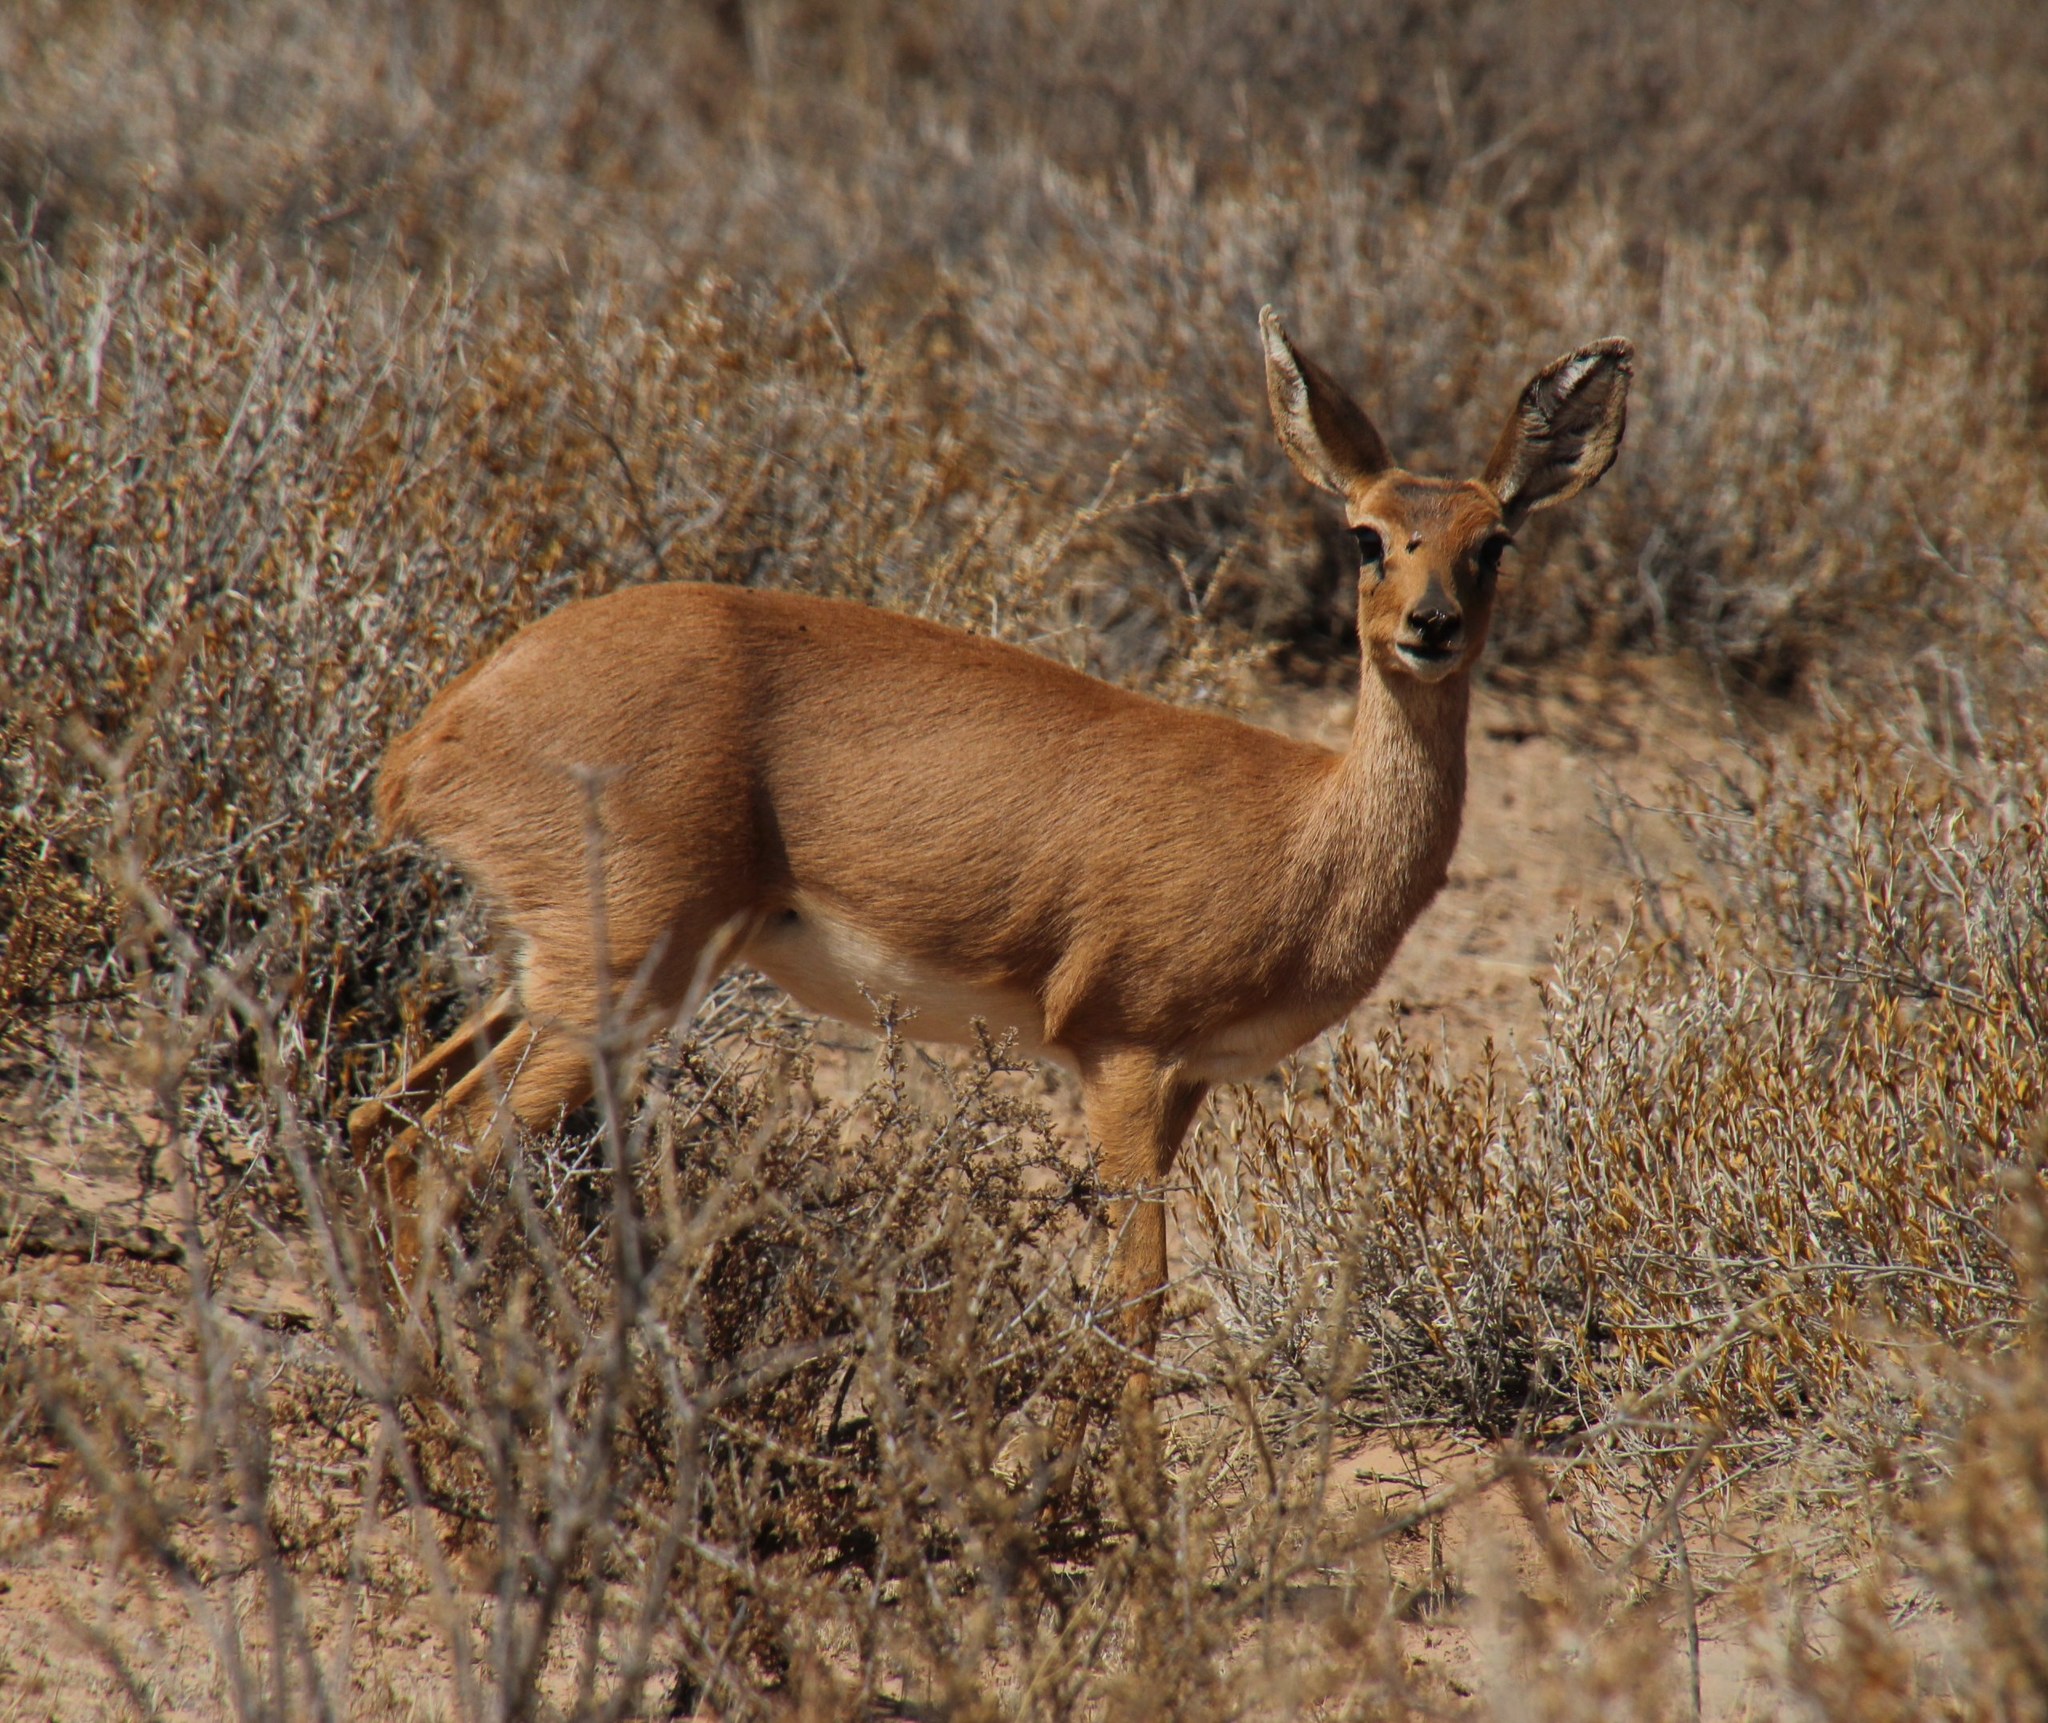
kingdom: Animalia
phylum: Chordata
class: Mammalia
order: Artiodactyla
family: Bovidae
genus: Raphicerus
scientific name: Raphicerus campestris
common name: Steenbok
